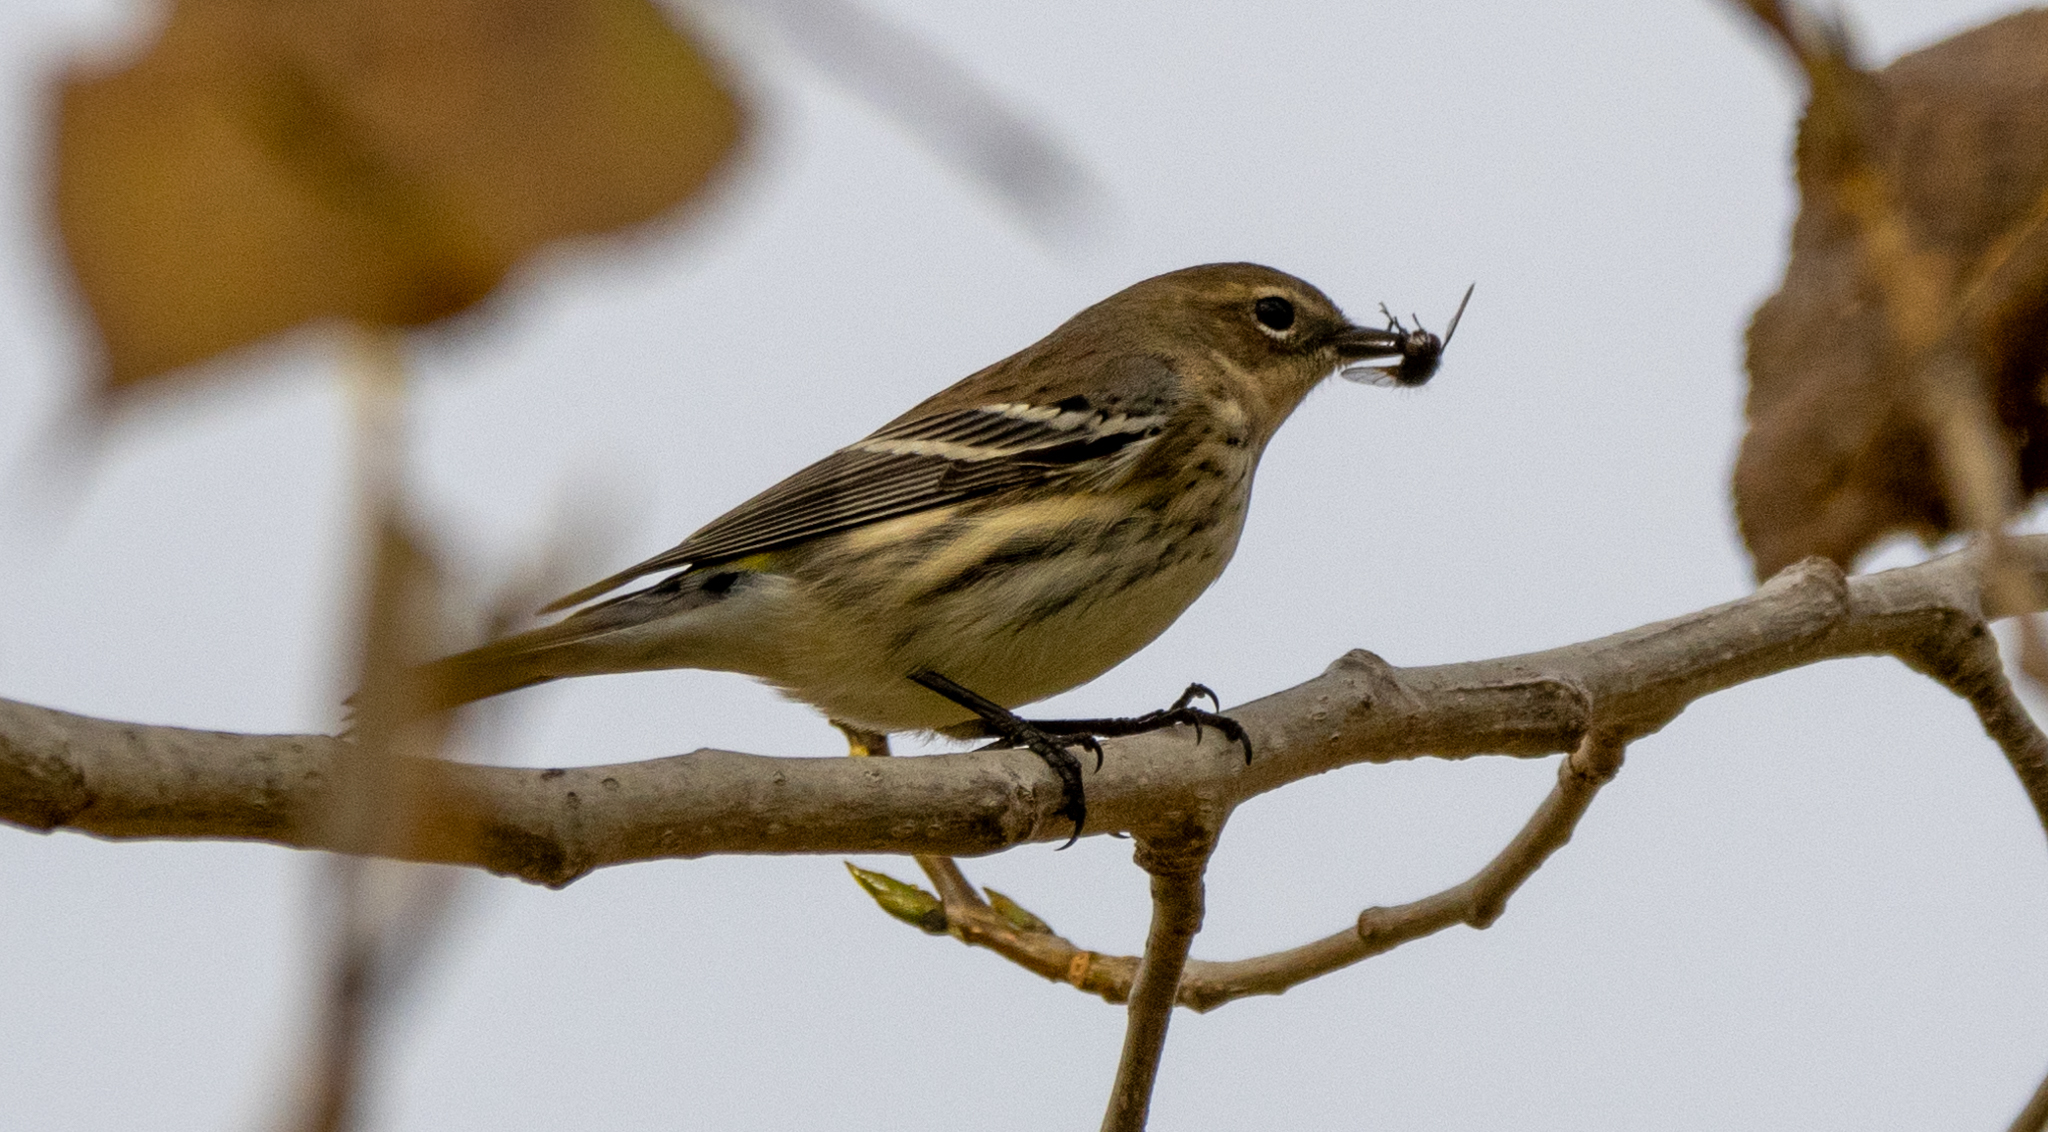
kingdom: Animalia
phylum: Chordata
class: Aves
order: Passeriformes
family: Parulidae
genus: Setophaga
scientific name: Setophaga coronata
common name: Myrtle warbler
